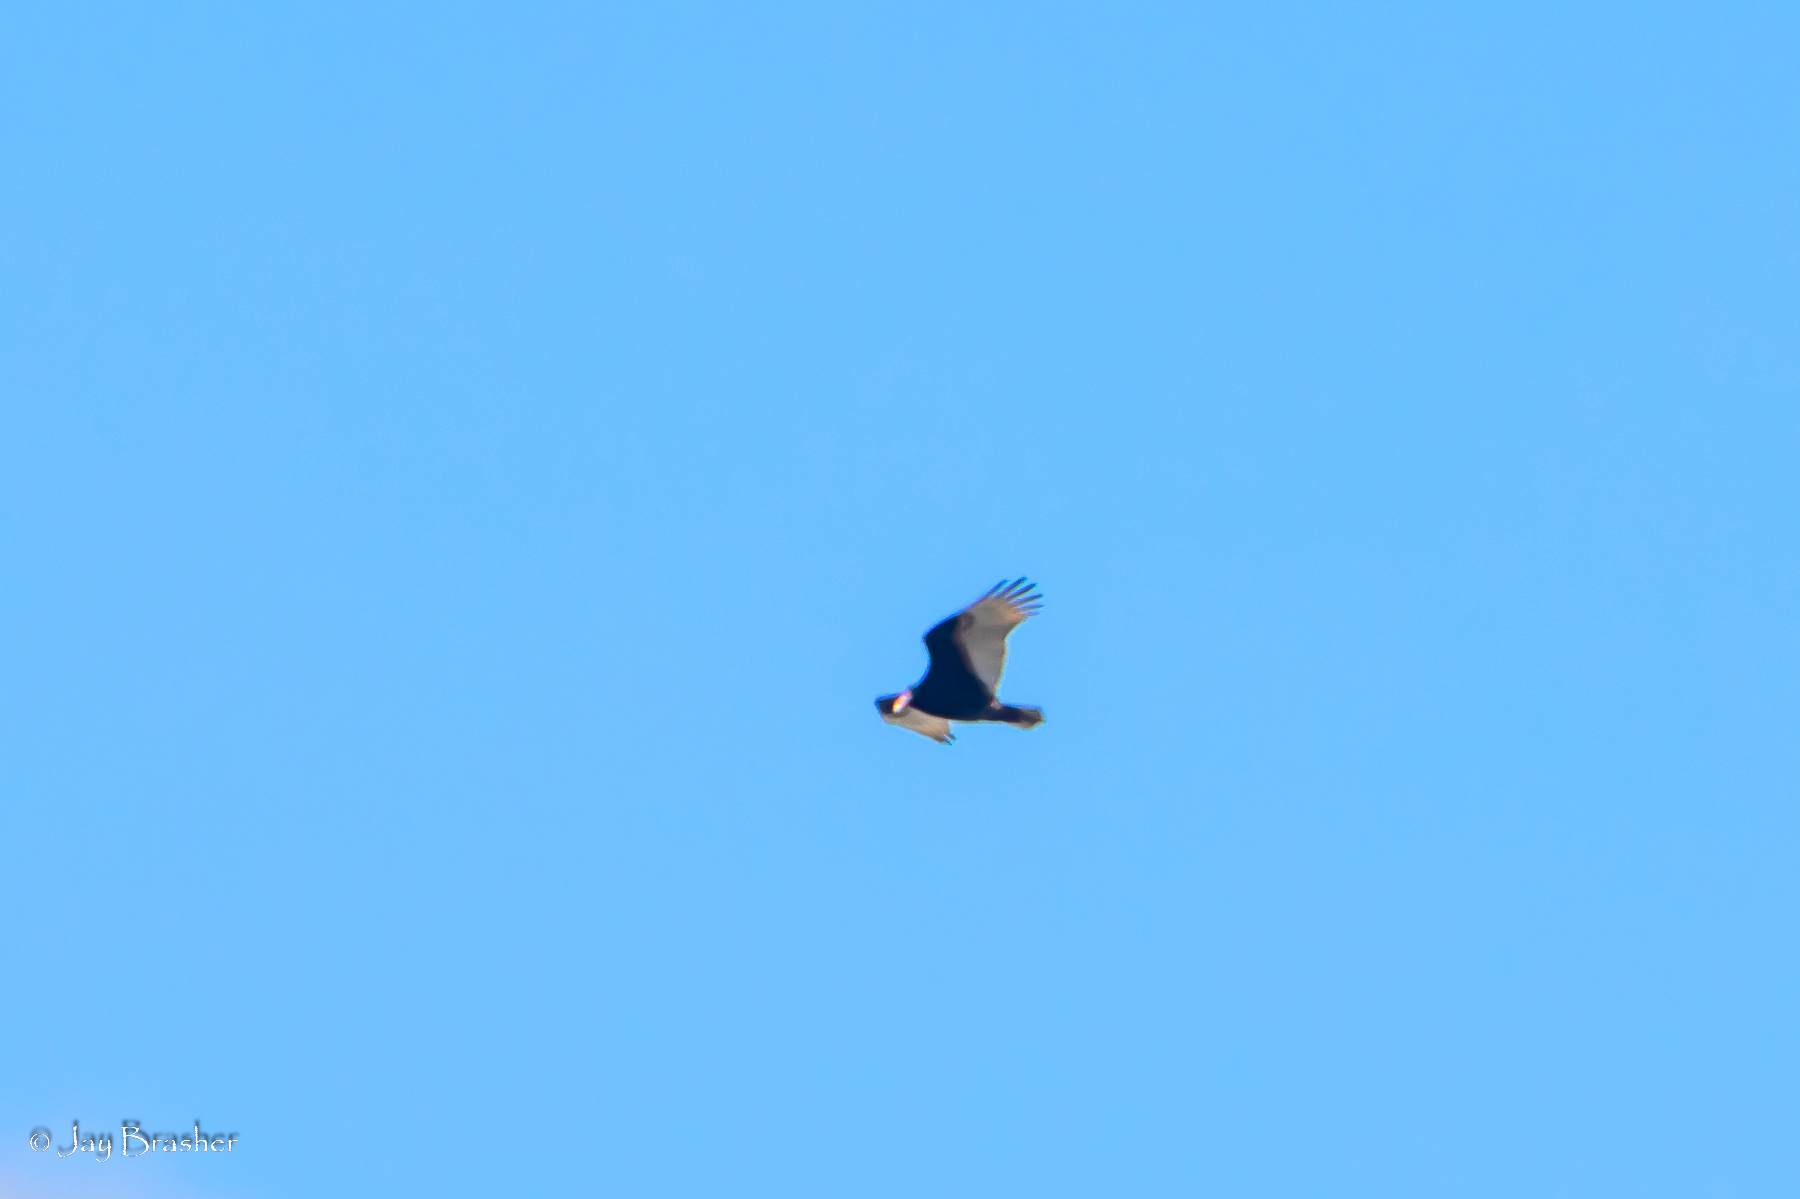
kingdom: Animalia
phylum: Chordata
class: Aves
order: Accipitriformes
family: Cathartidae
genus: Cathartes
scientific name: Cathartes aura
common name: Turkey vulture
